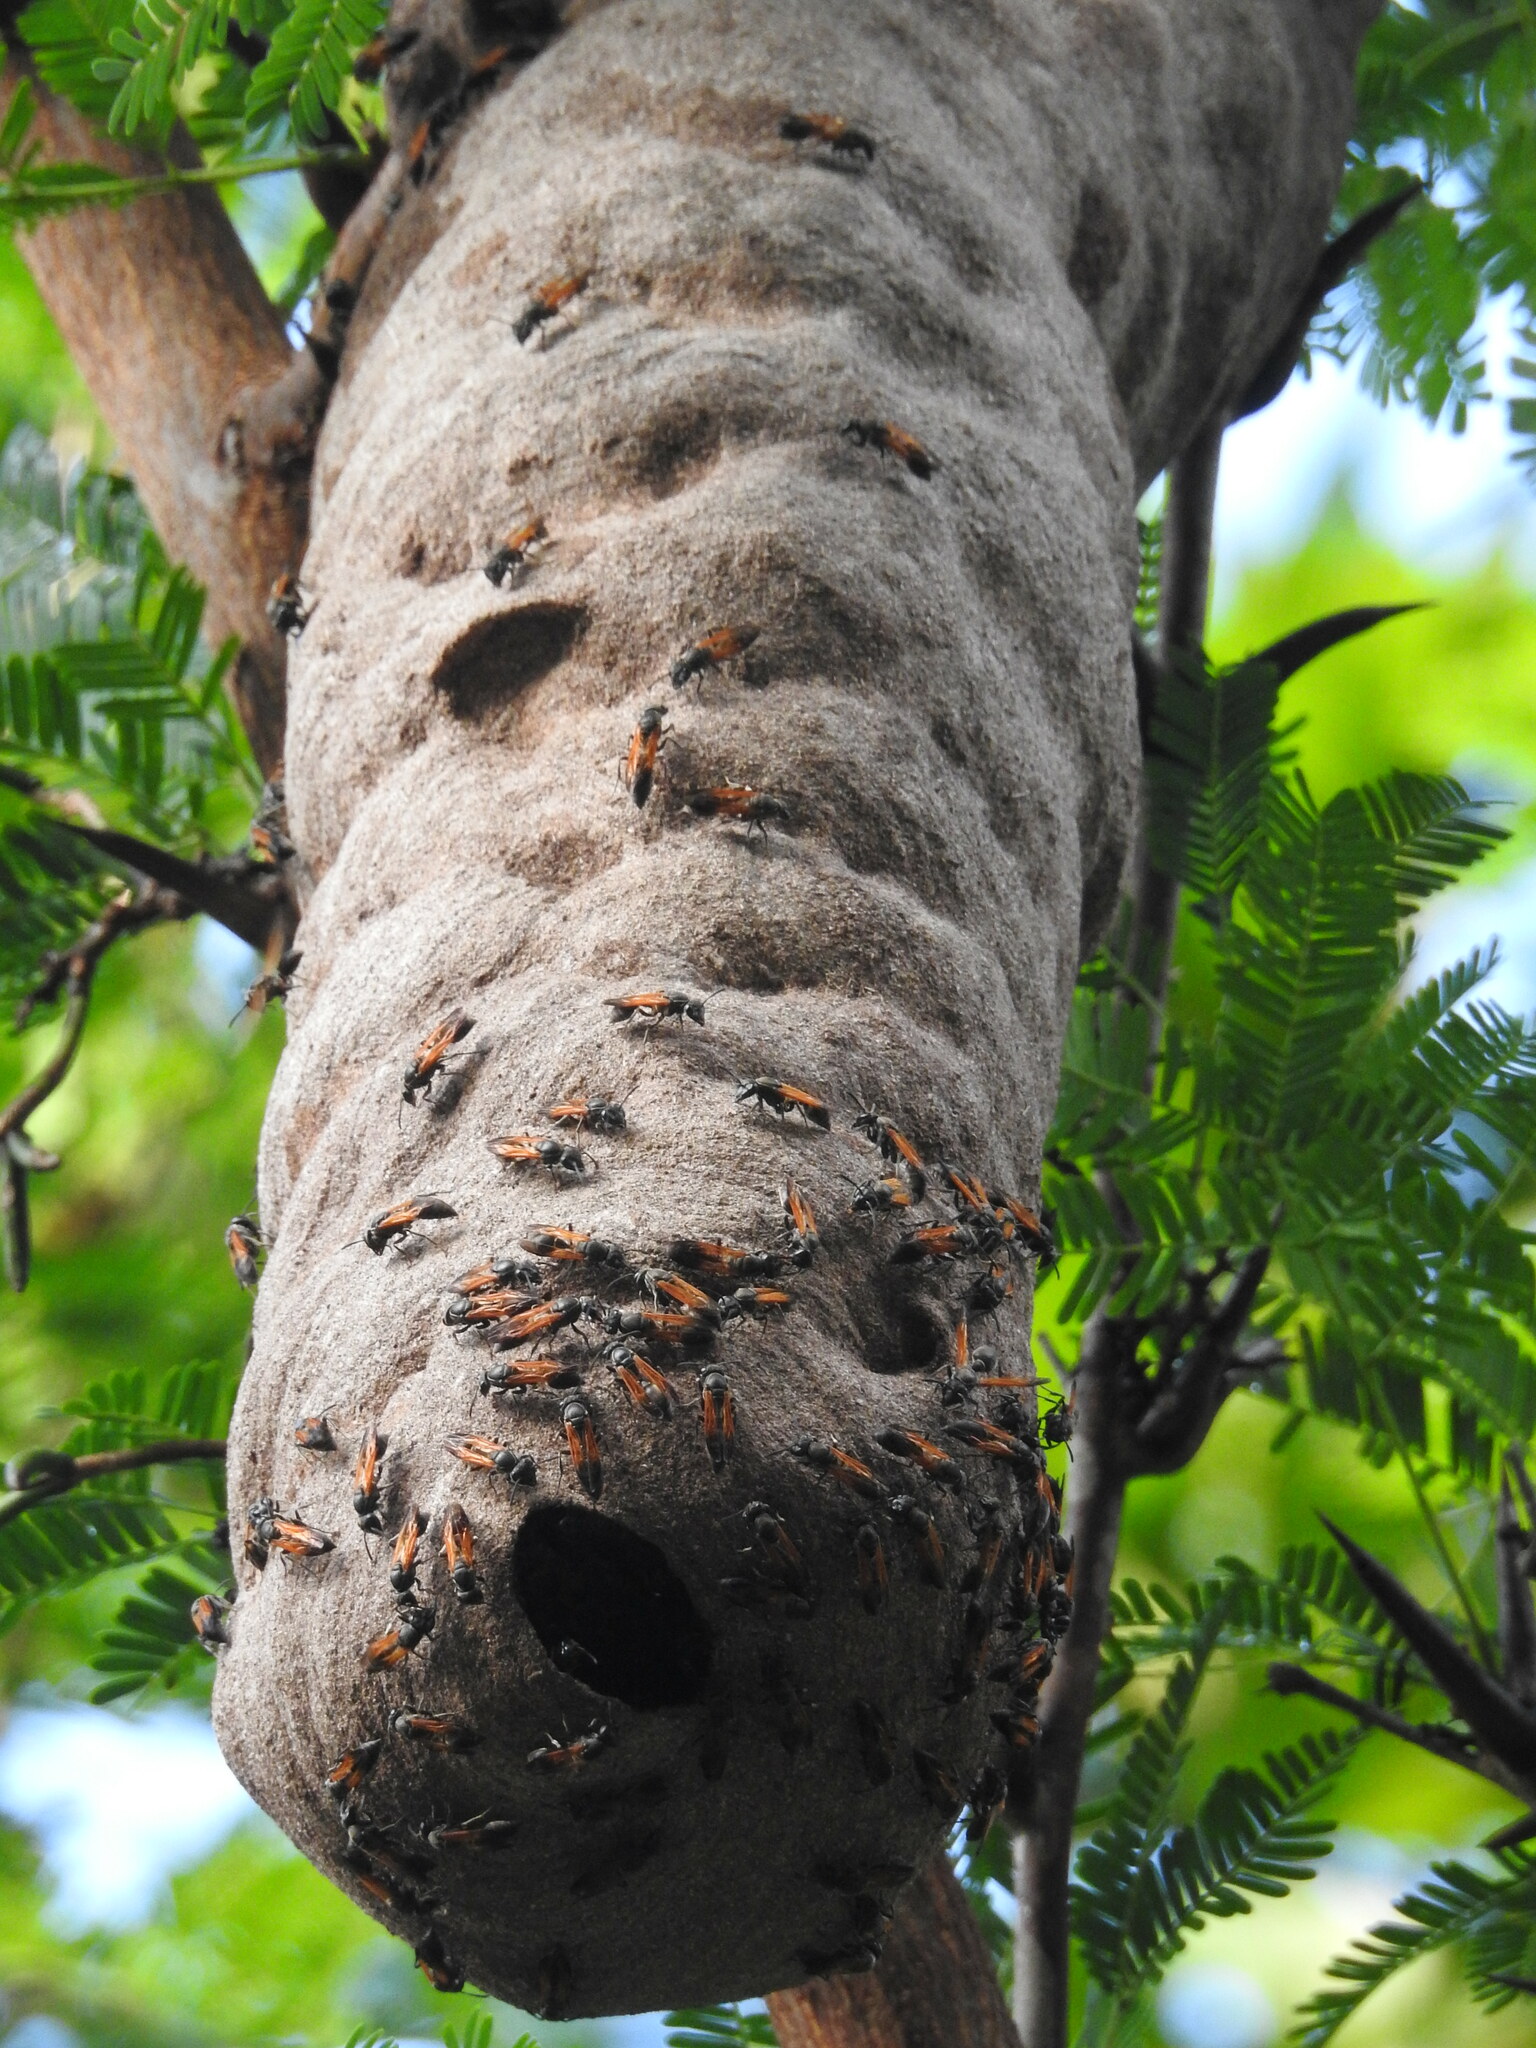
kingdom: Animalia
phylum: Arthropoda
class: Insecta
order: Hymenoptera
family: Eumenidae
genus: Polybia
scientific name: Polybia rejecta
